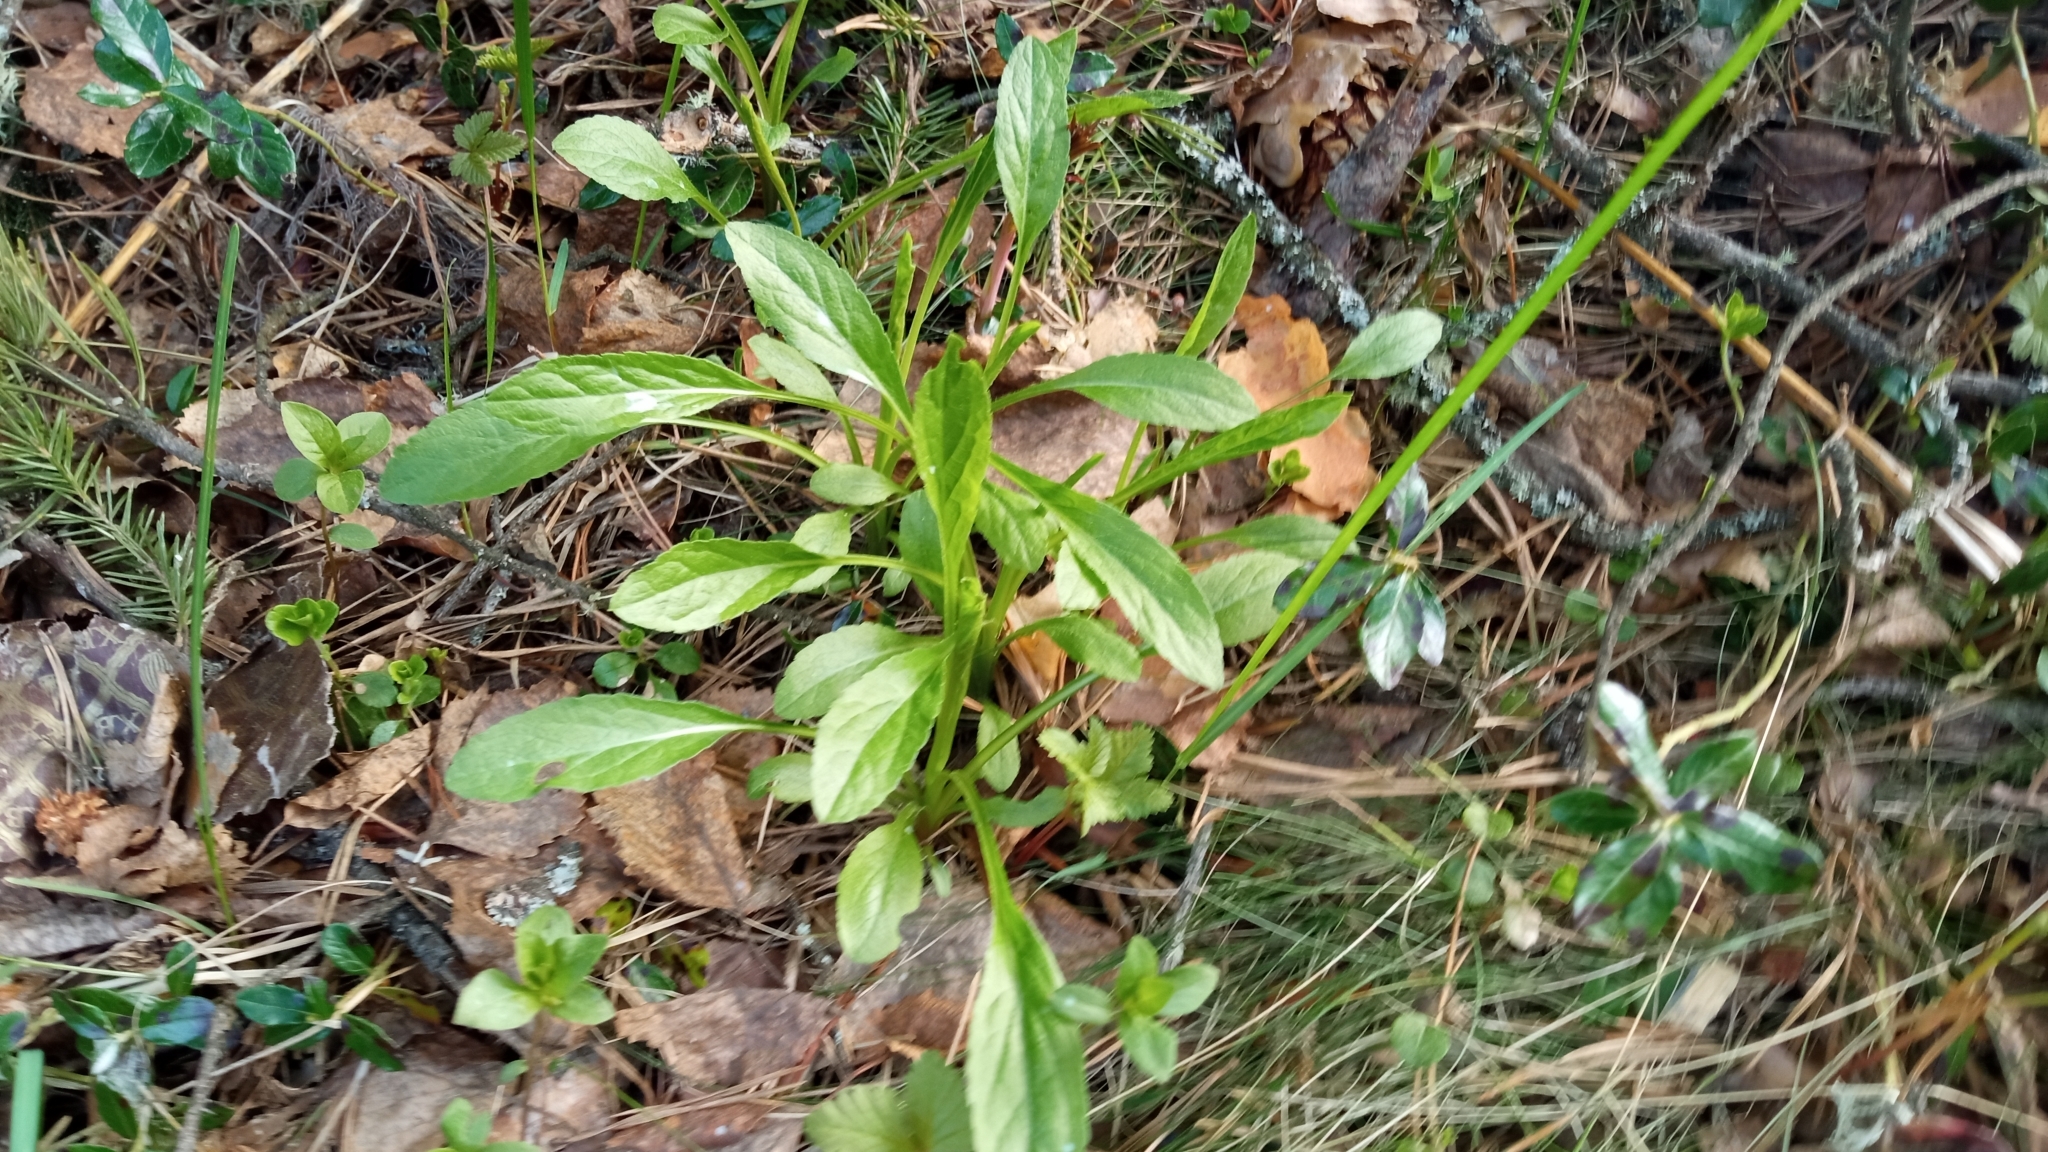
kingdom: Plantae
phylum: Tracheophyta
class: Magnoliopsida
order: Asterales
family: Asteraceae
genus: Solidago
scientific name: Solidago virgaurea
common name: Goldenrod
